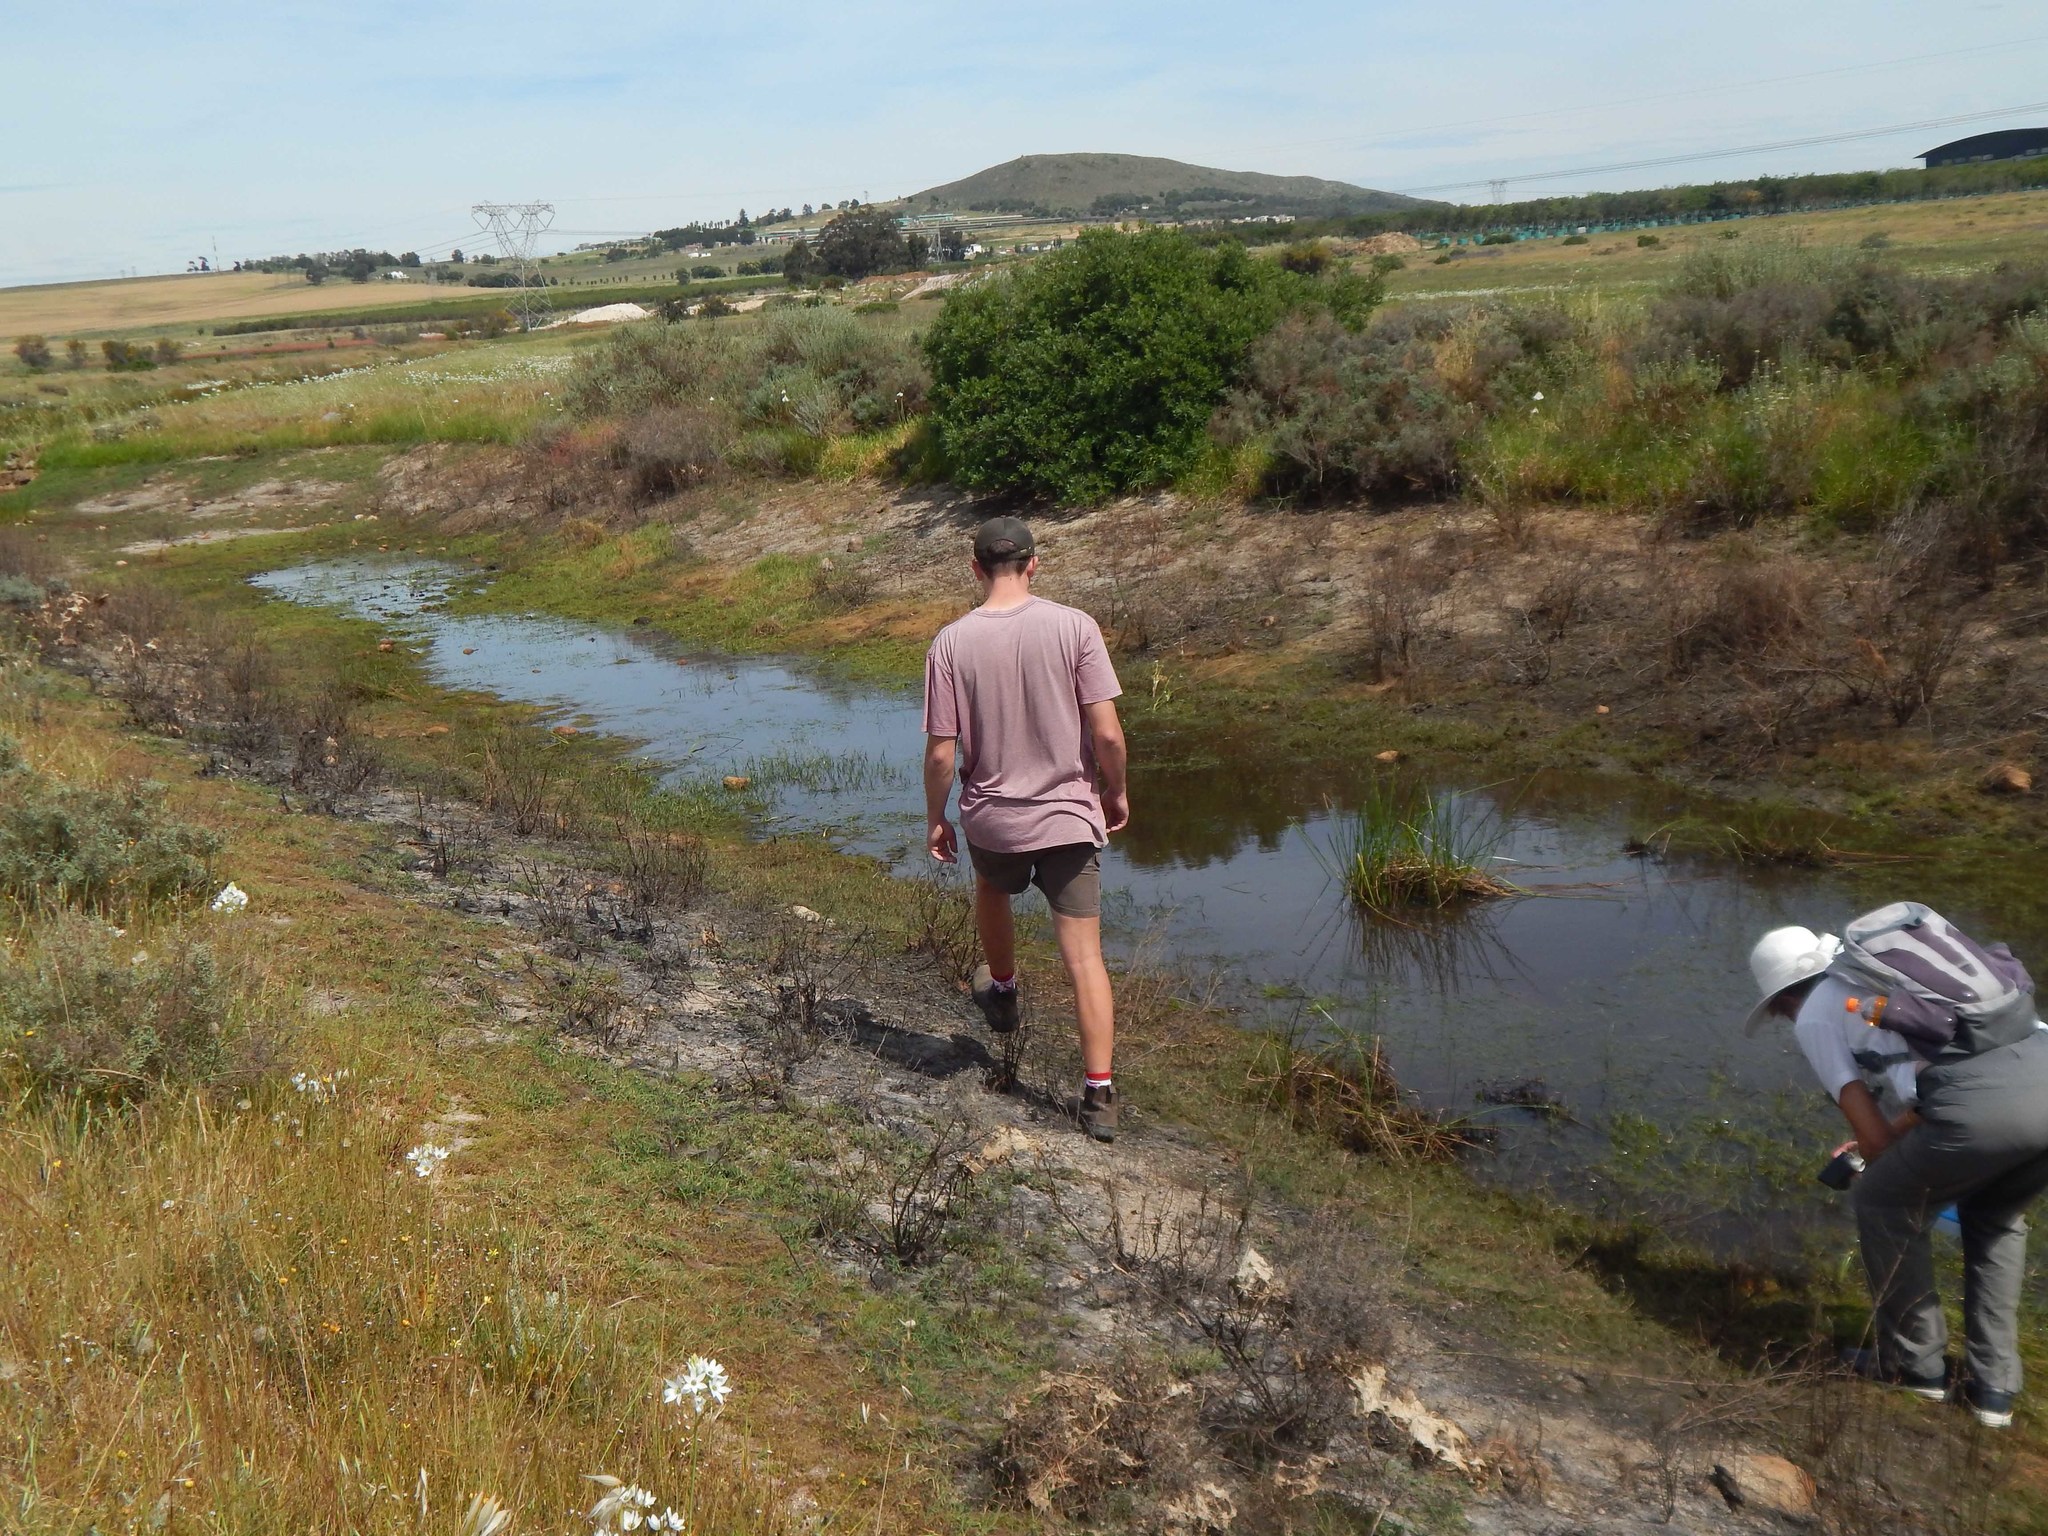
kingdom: Plantae
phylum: Tracheophyta
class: Liliopsida
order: Asparagales
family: Hypoxidaceae
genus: Pauridia
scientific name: Pauridia aquatica
